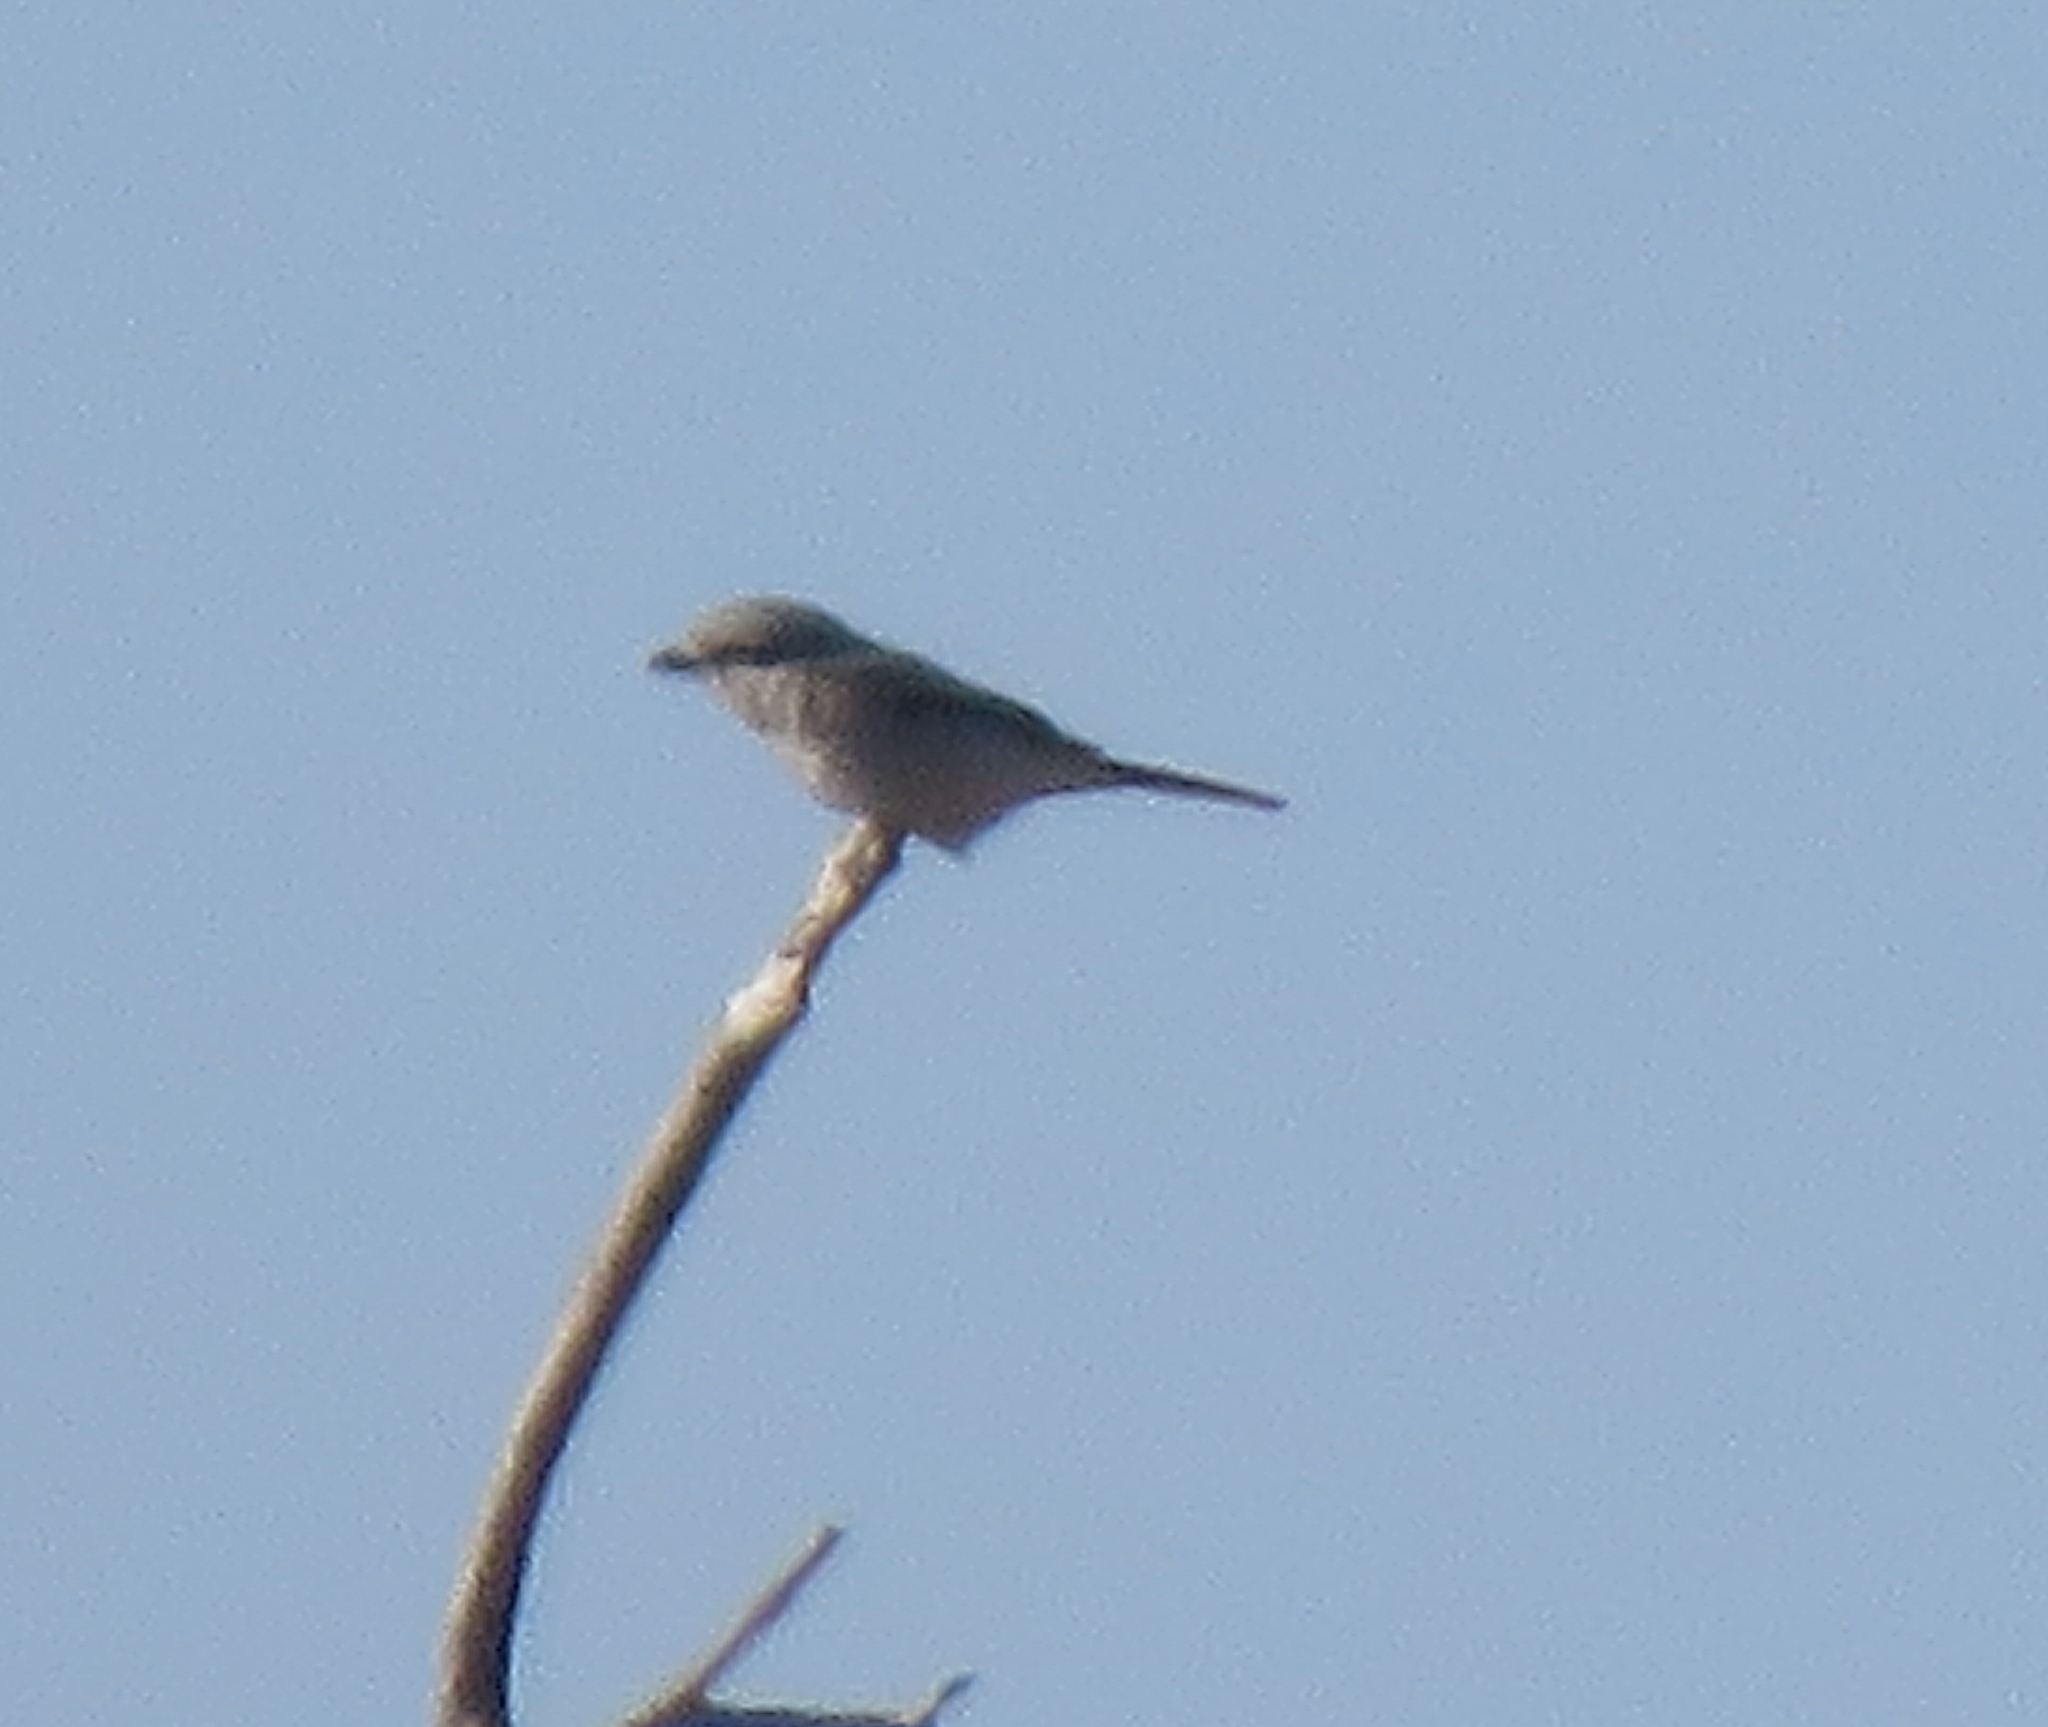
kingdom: Animalia
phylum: Chordata
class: Aves
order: Passeriformes
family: Laniidae
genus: Lanius
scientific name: Lanius borealis
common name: Northern shrike
